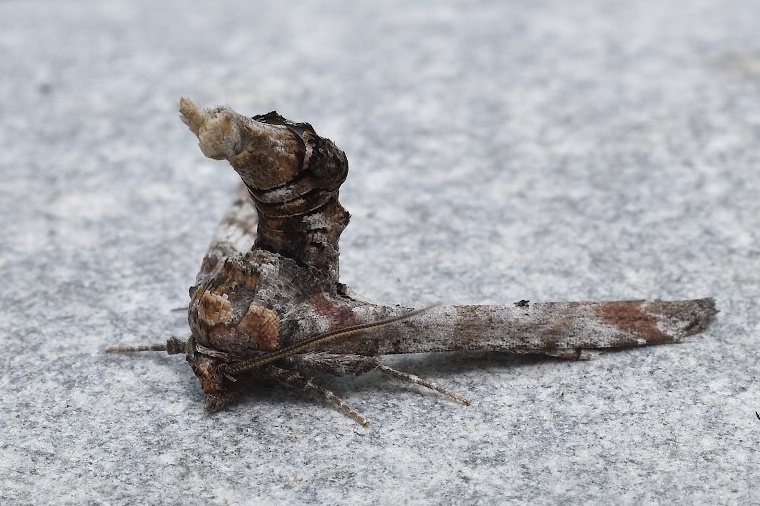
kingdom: Animalia
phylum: Arthropoda
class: Insecta
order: Lepidoptera
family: Euteliidae
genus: Marathyssa
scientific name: Marathyssa inficita
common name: Dark marathyssa moth
